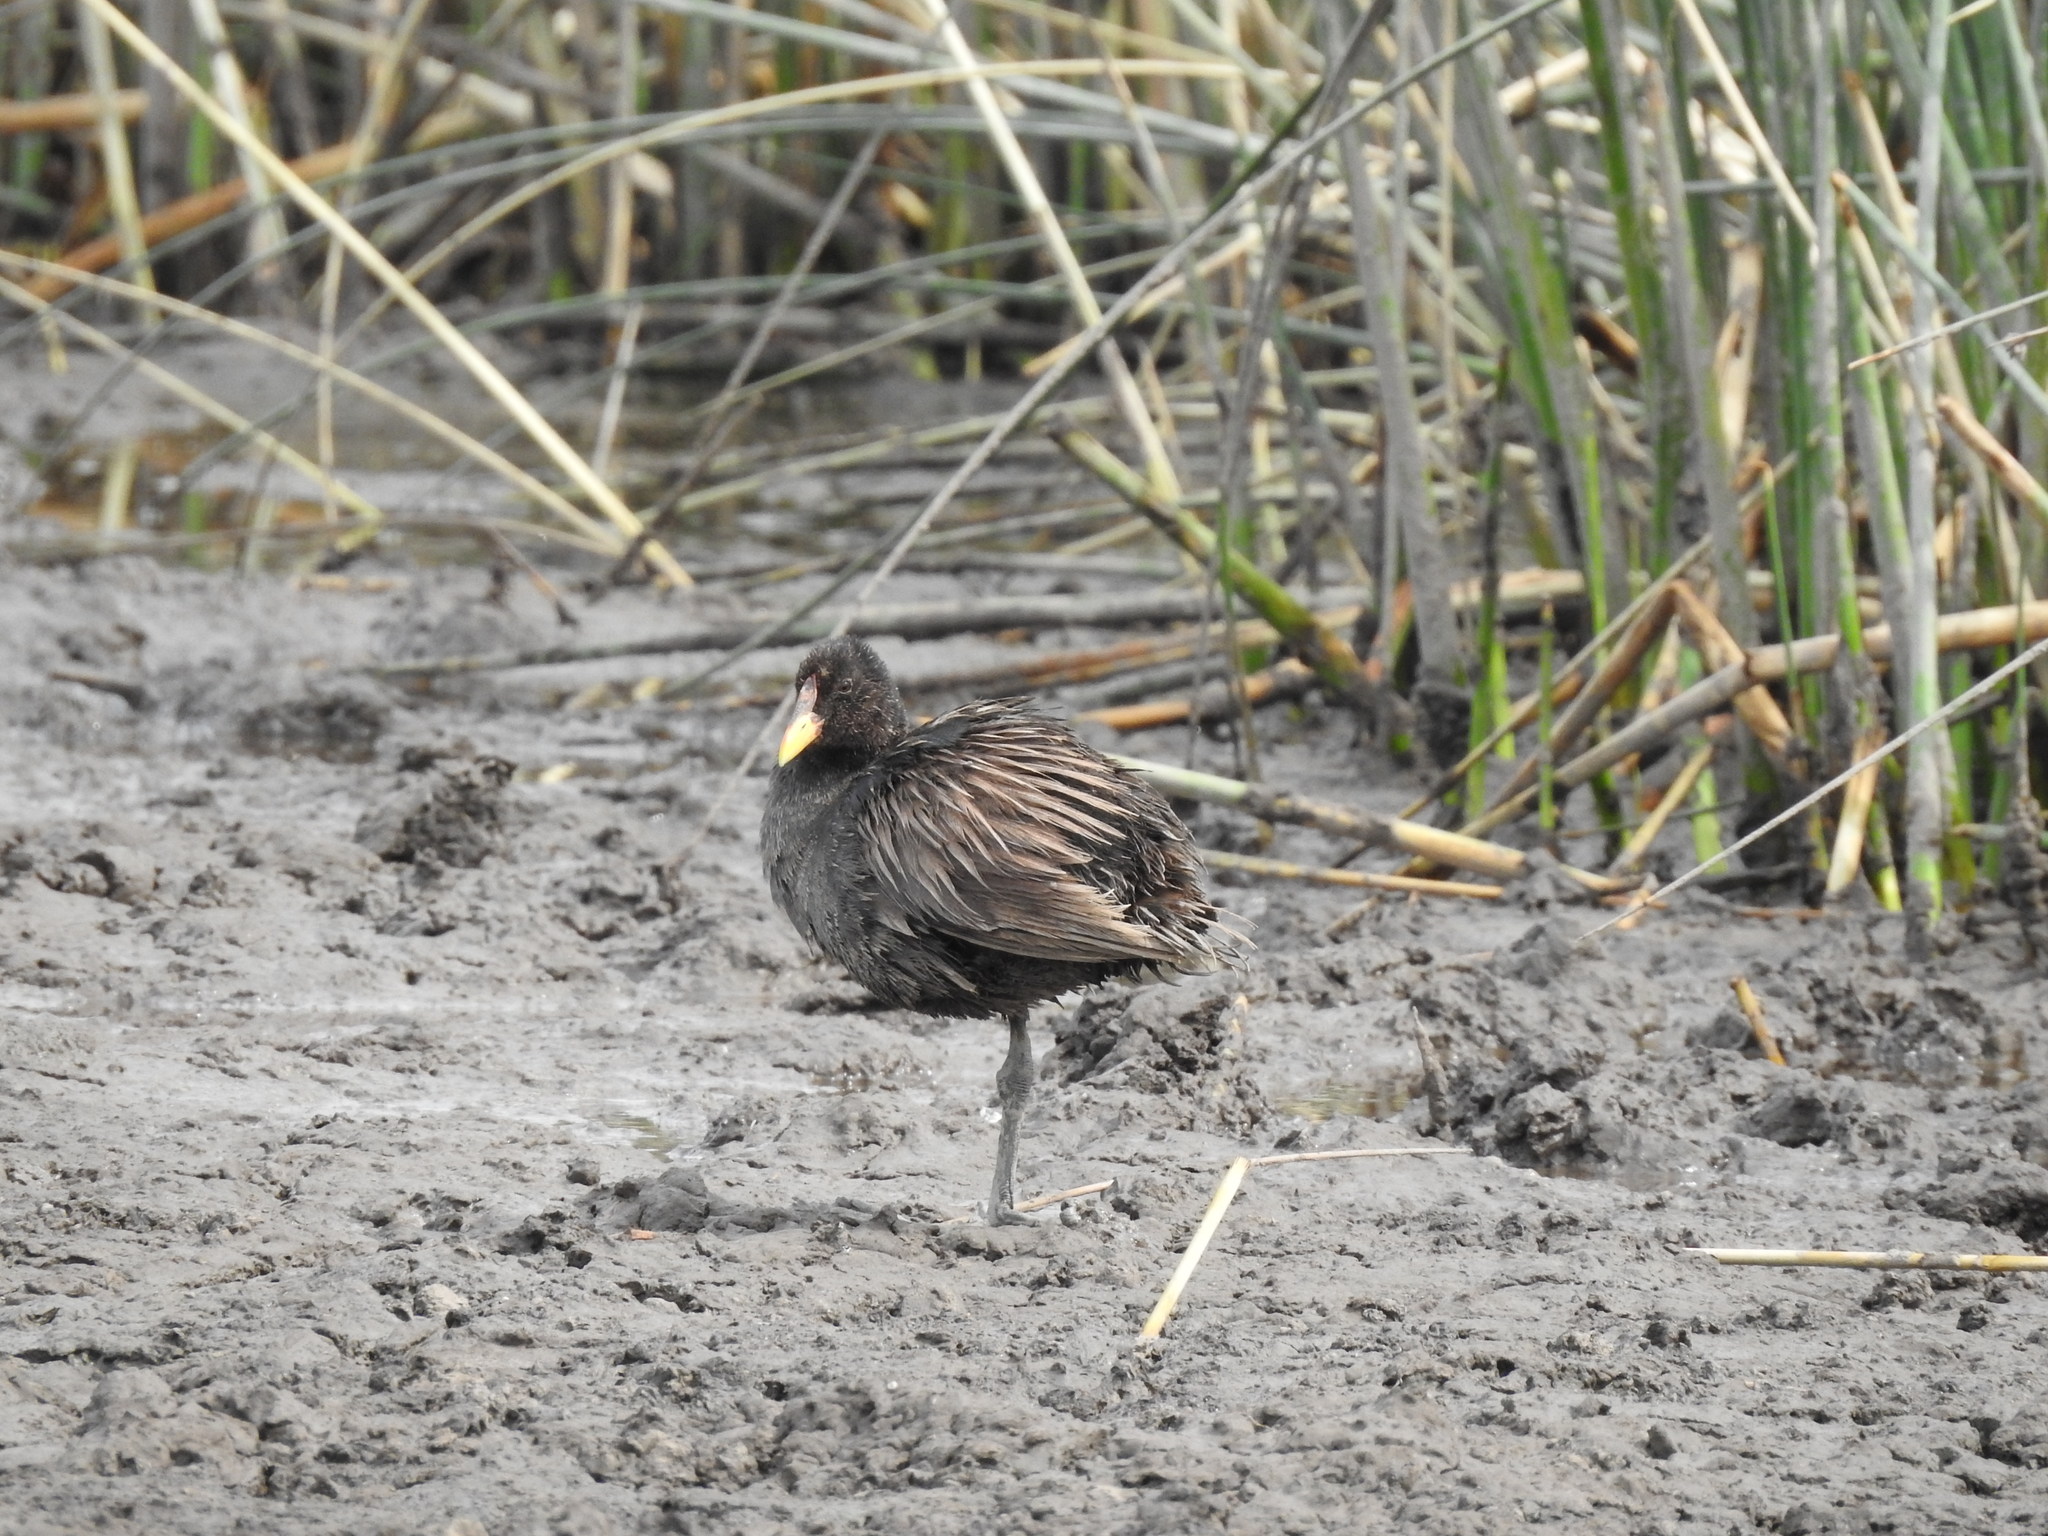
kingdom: Animalia
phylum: Chordata
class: Aves
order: Gruiformes
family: Rallidae
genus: Fulica
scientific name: Fulica rufifrons
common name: Red-fronted coot
